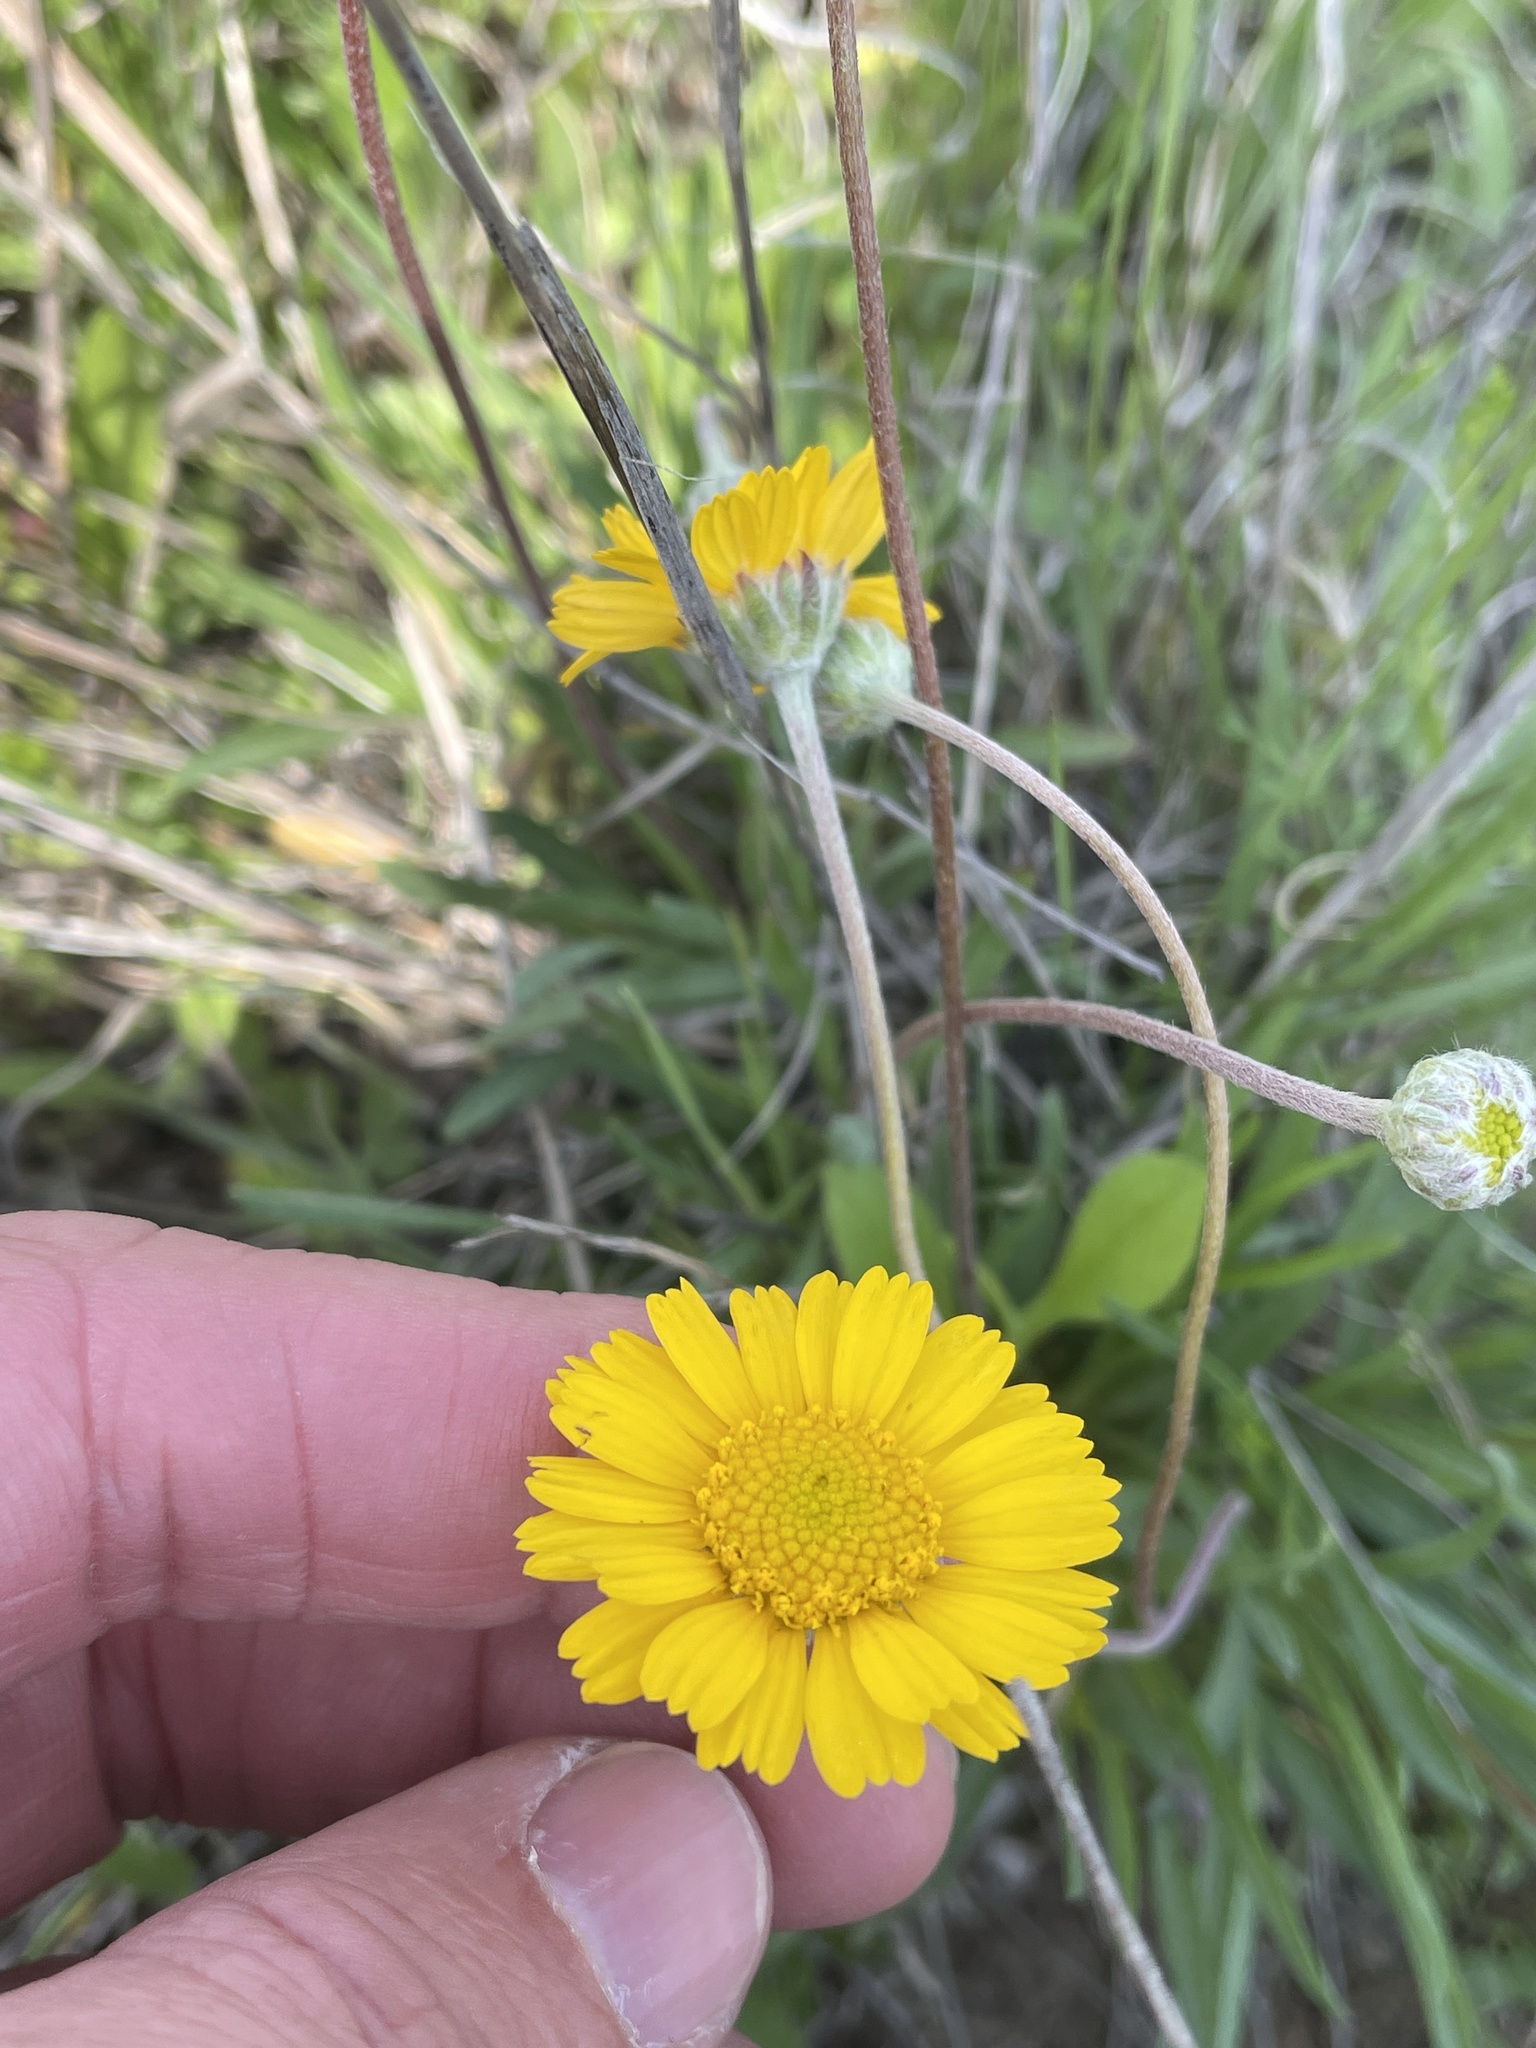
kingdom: Plantae
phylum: Tracheophyta
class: Magnoliopsida
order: Asterales
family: Asteraceae
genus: Tetraneuris
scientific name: Tetraneuris scaposa
